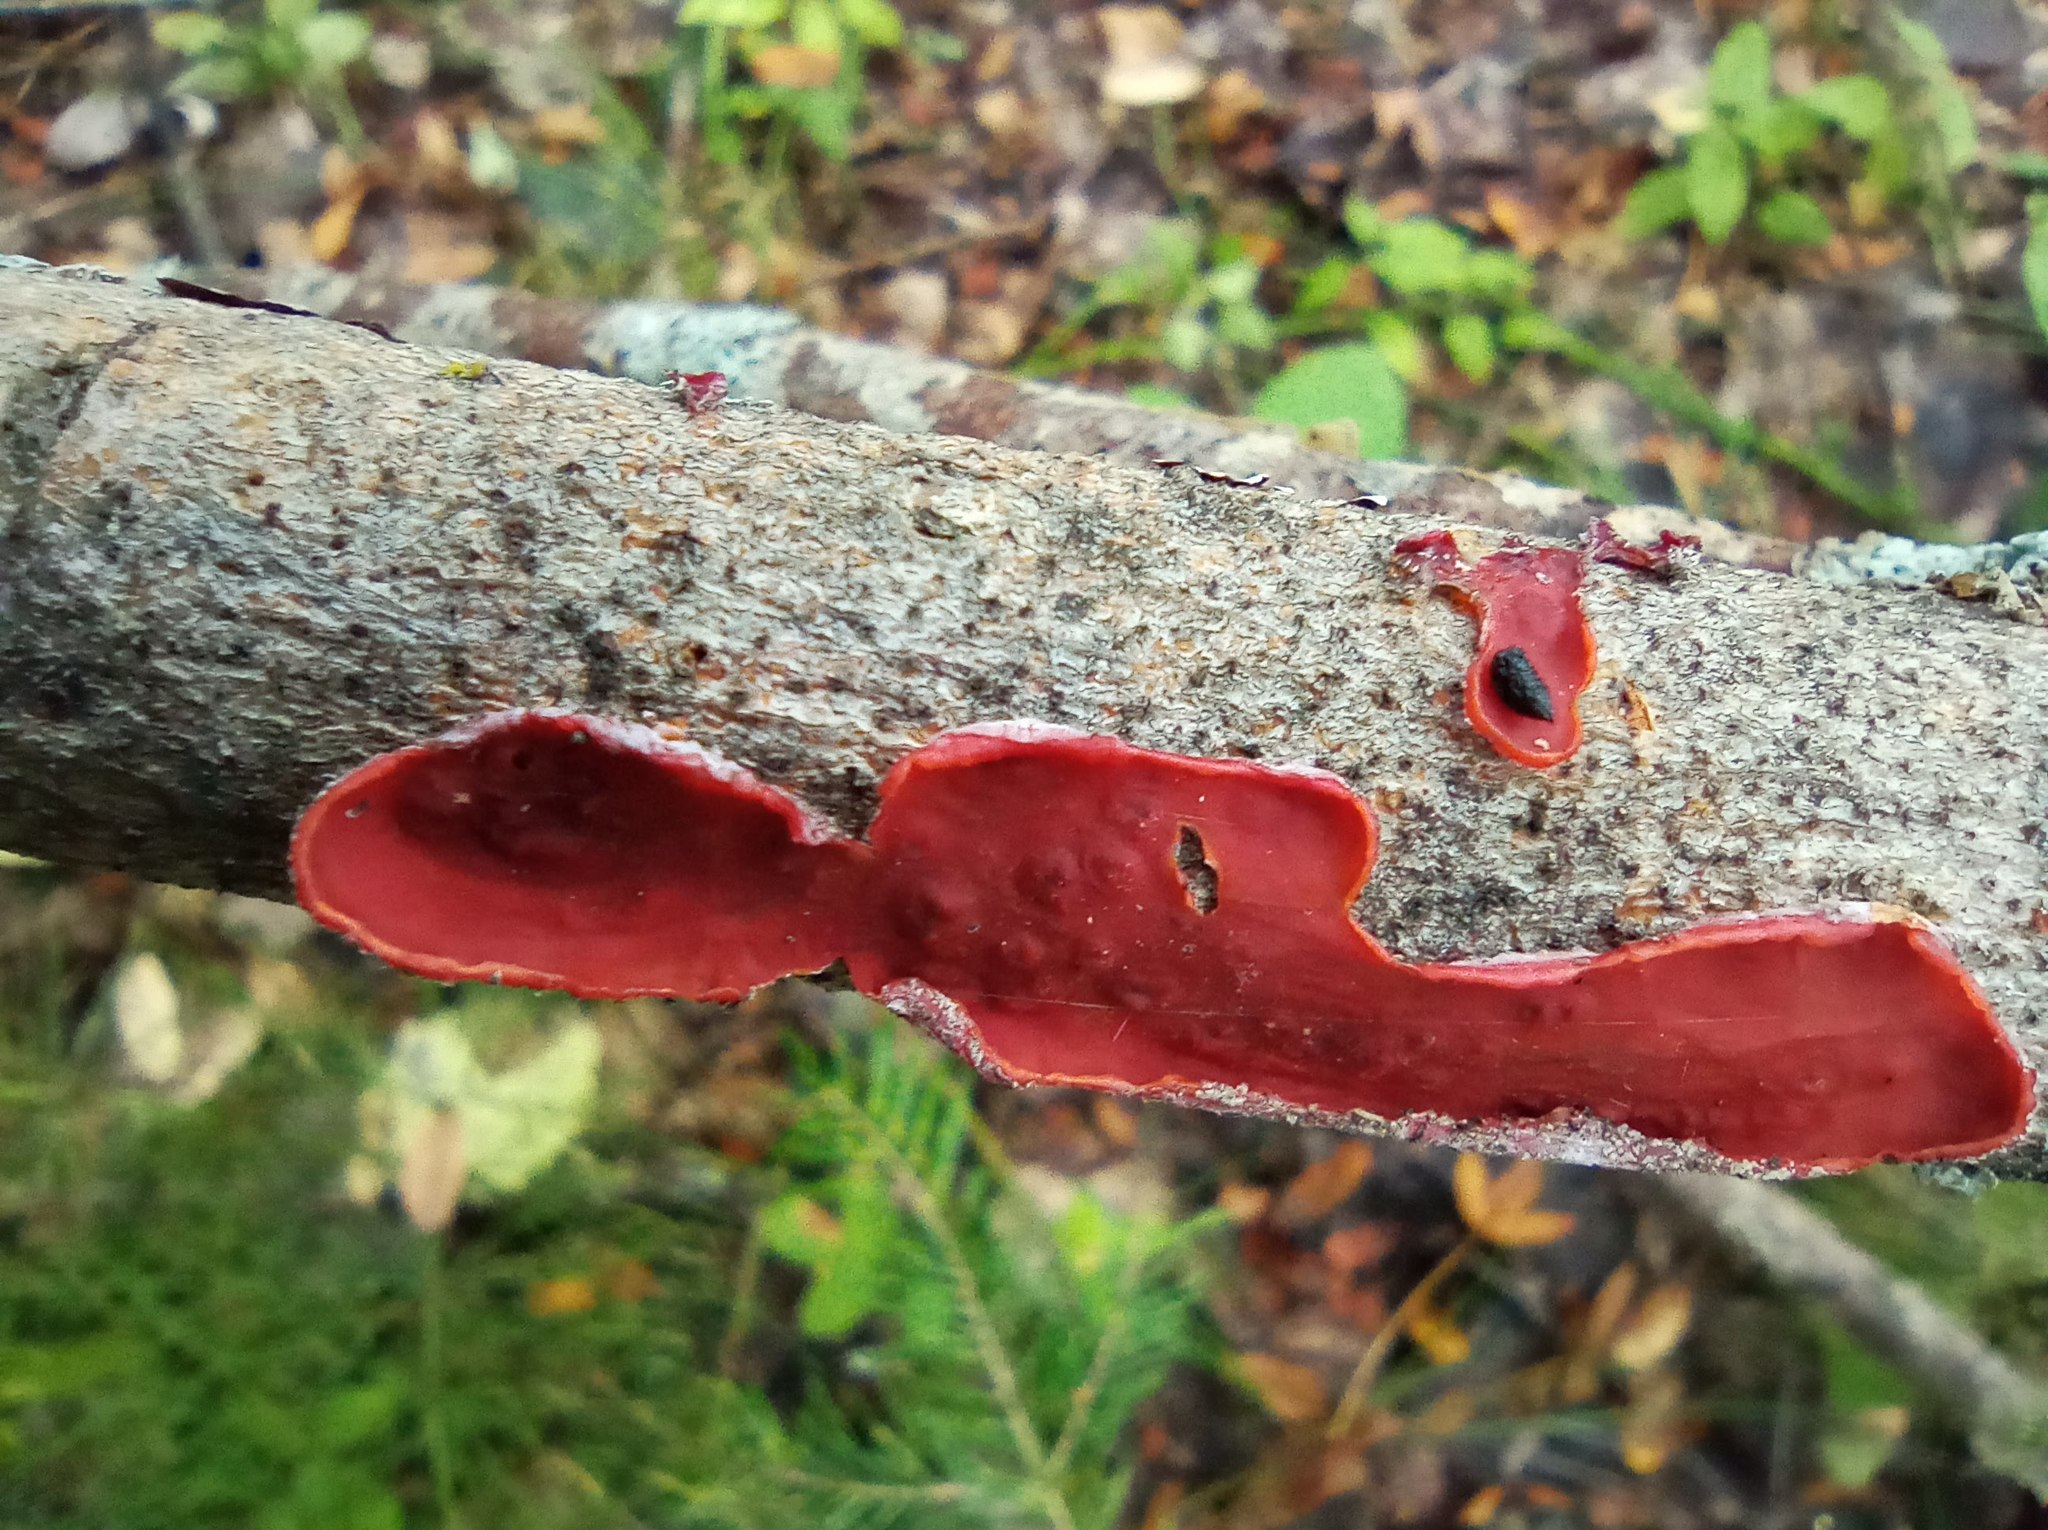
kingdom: Fungi
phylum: Basidiomycota
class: Agaricomycetes
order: Corticiales
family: Vuilleminiaceae
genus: Cytidia
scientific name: Cytidia salicina
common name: Scarlet splash
